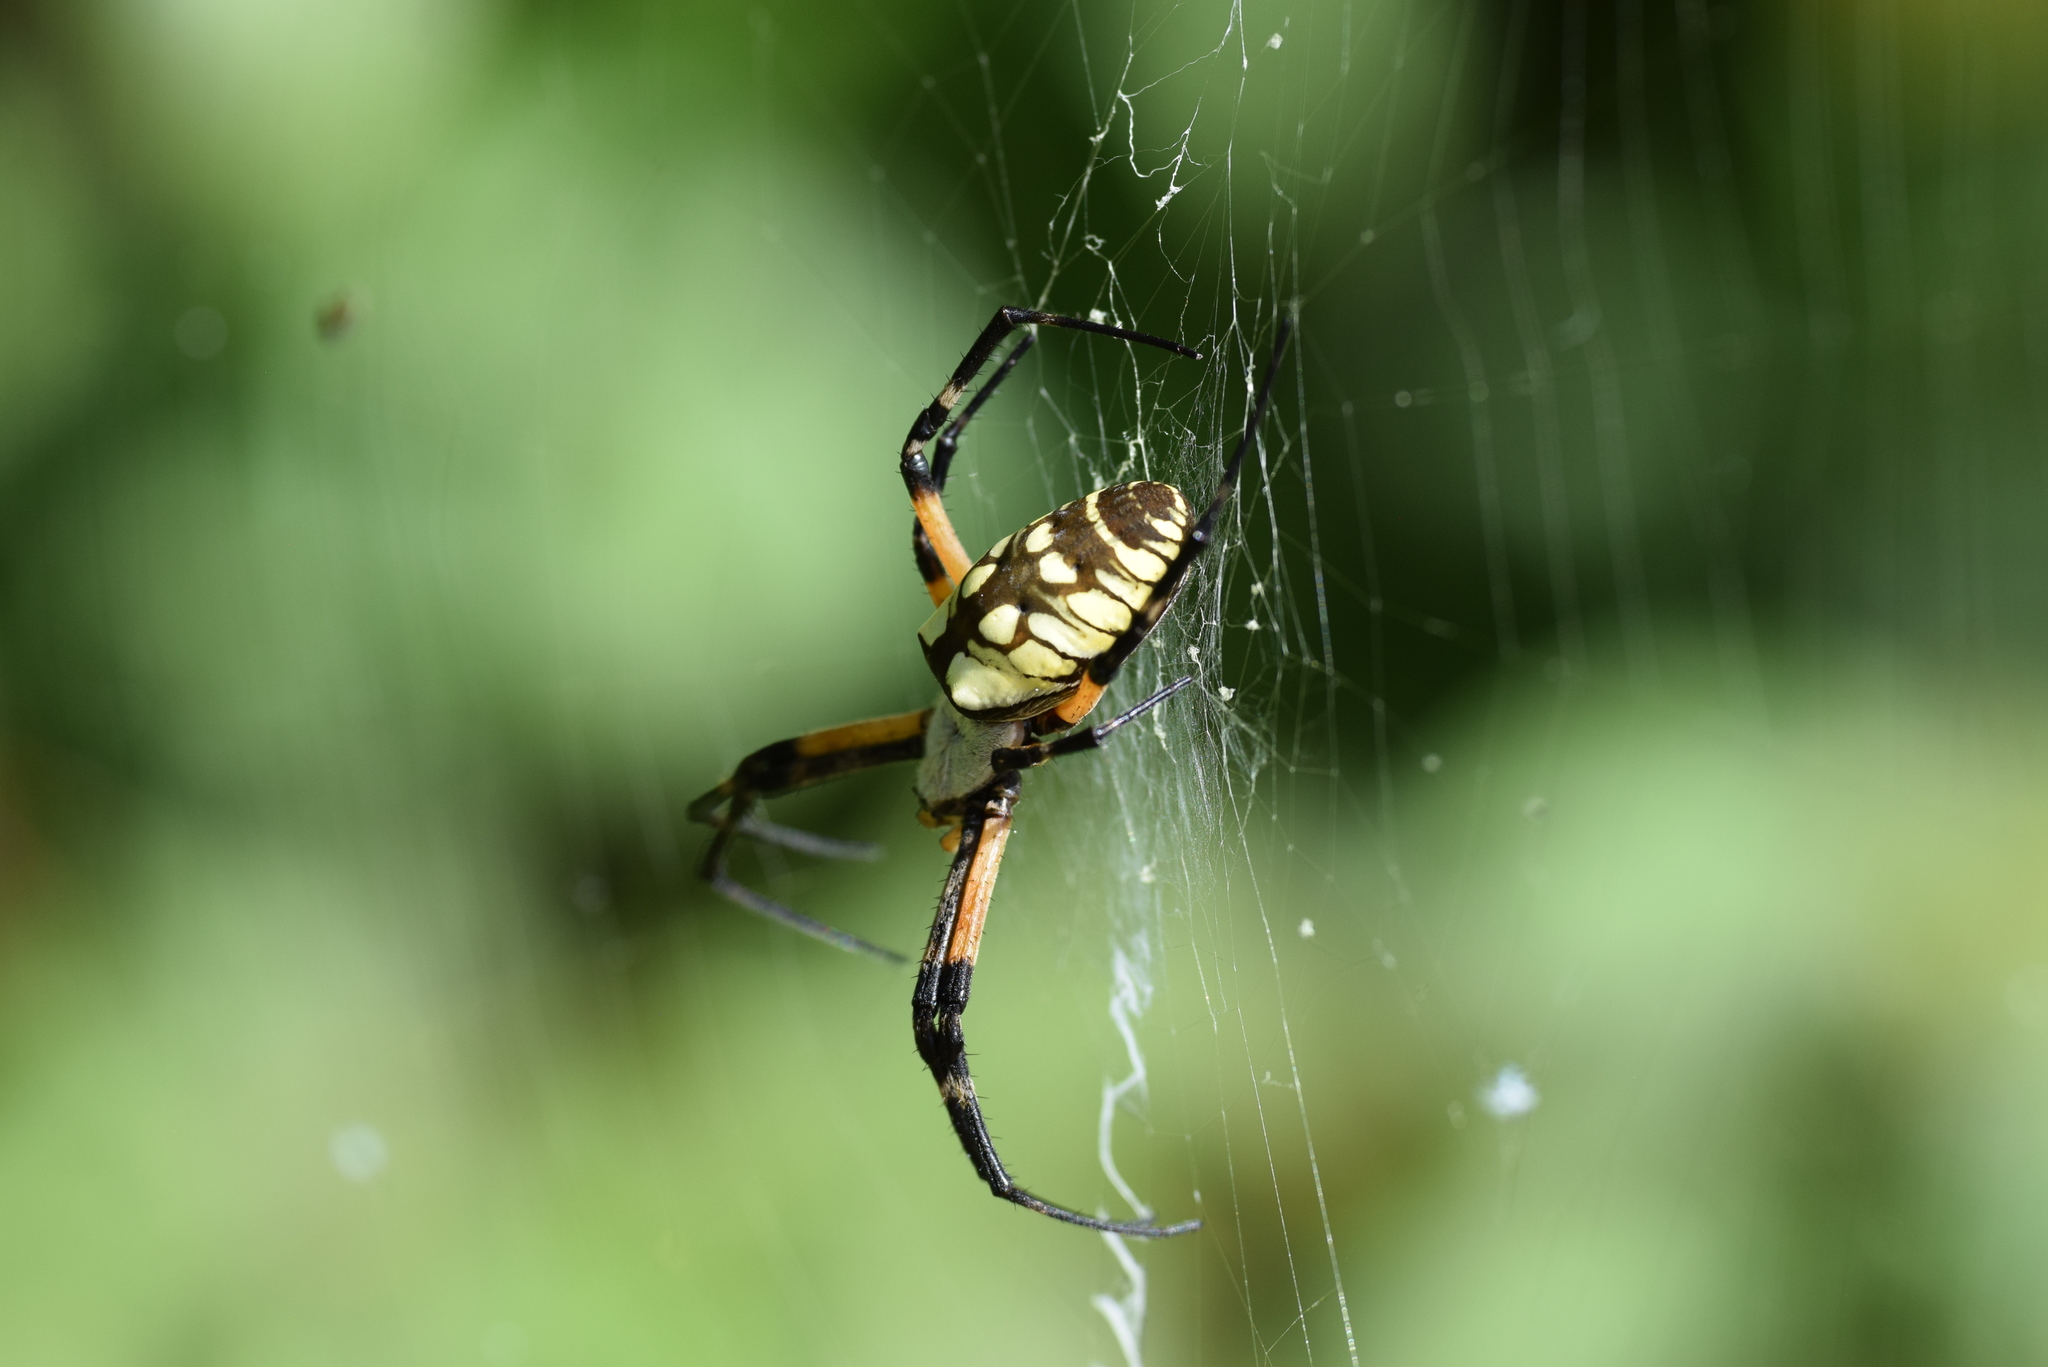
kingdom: Animalia
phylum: Arthropoda
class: Arachnida
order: Araneae
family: Araneidae
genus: Argiope
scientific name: Argiope aurantia
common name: Orb weavers
